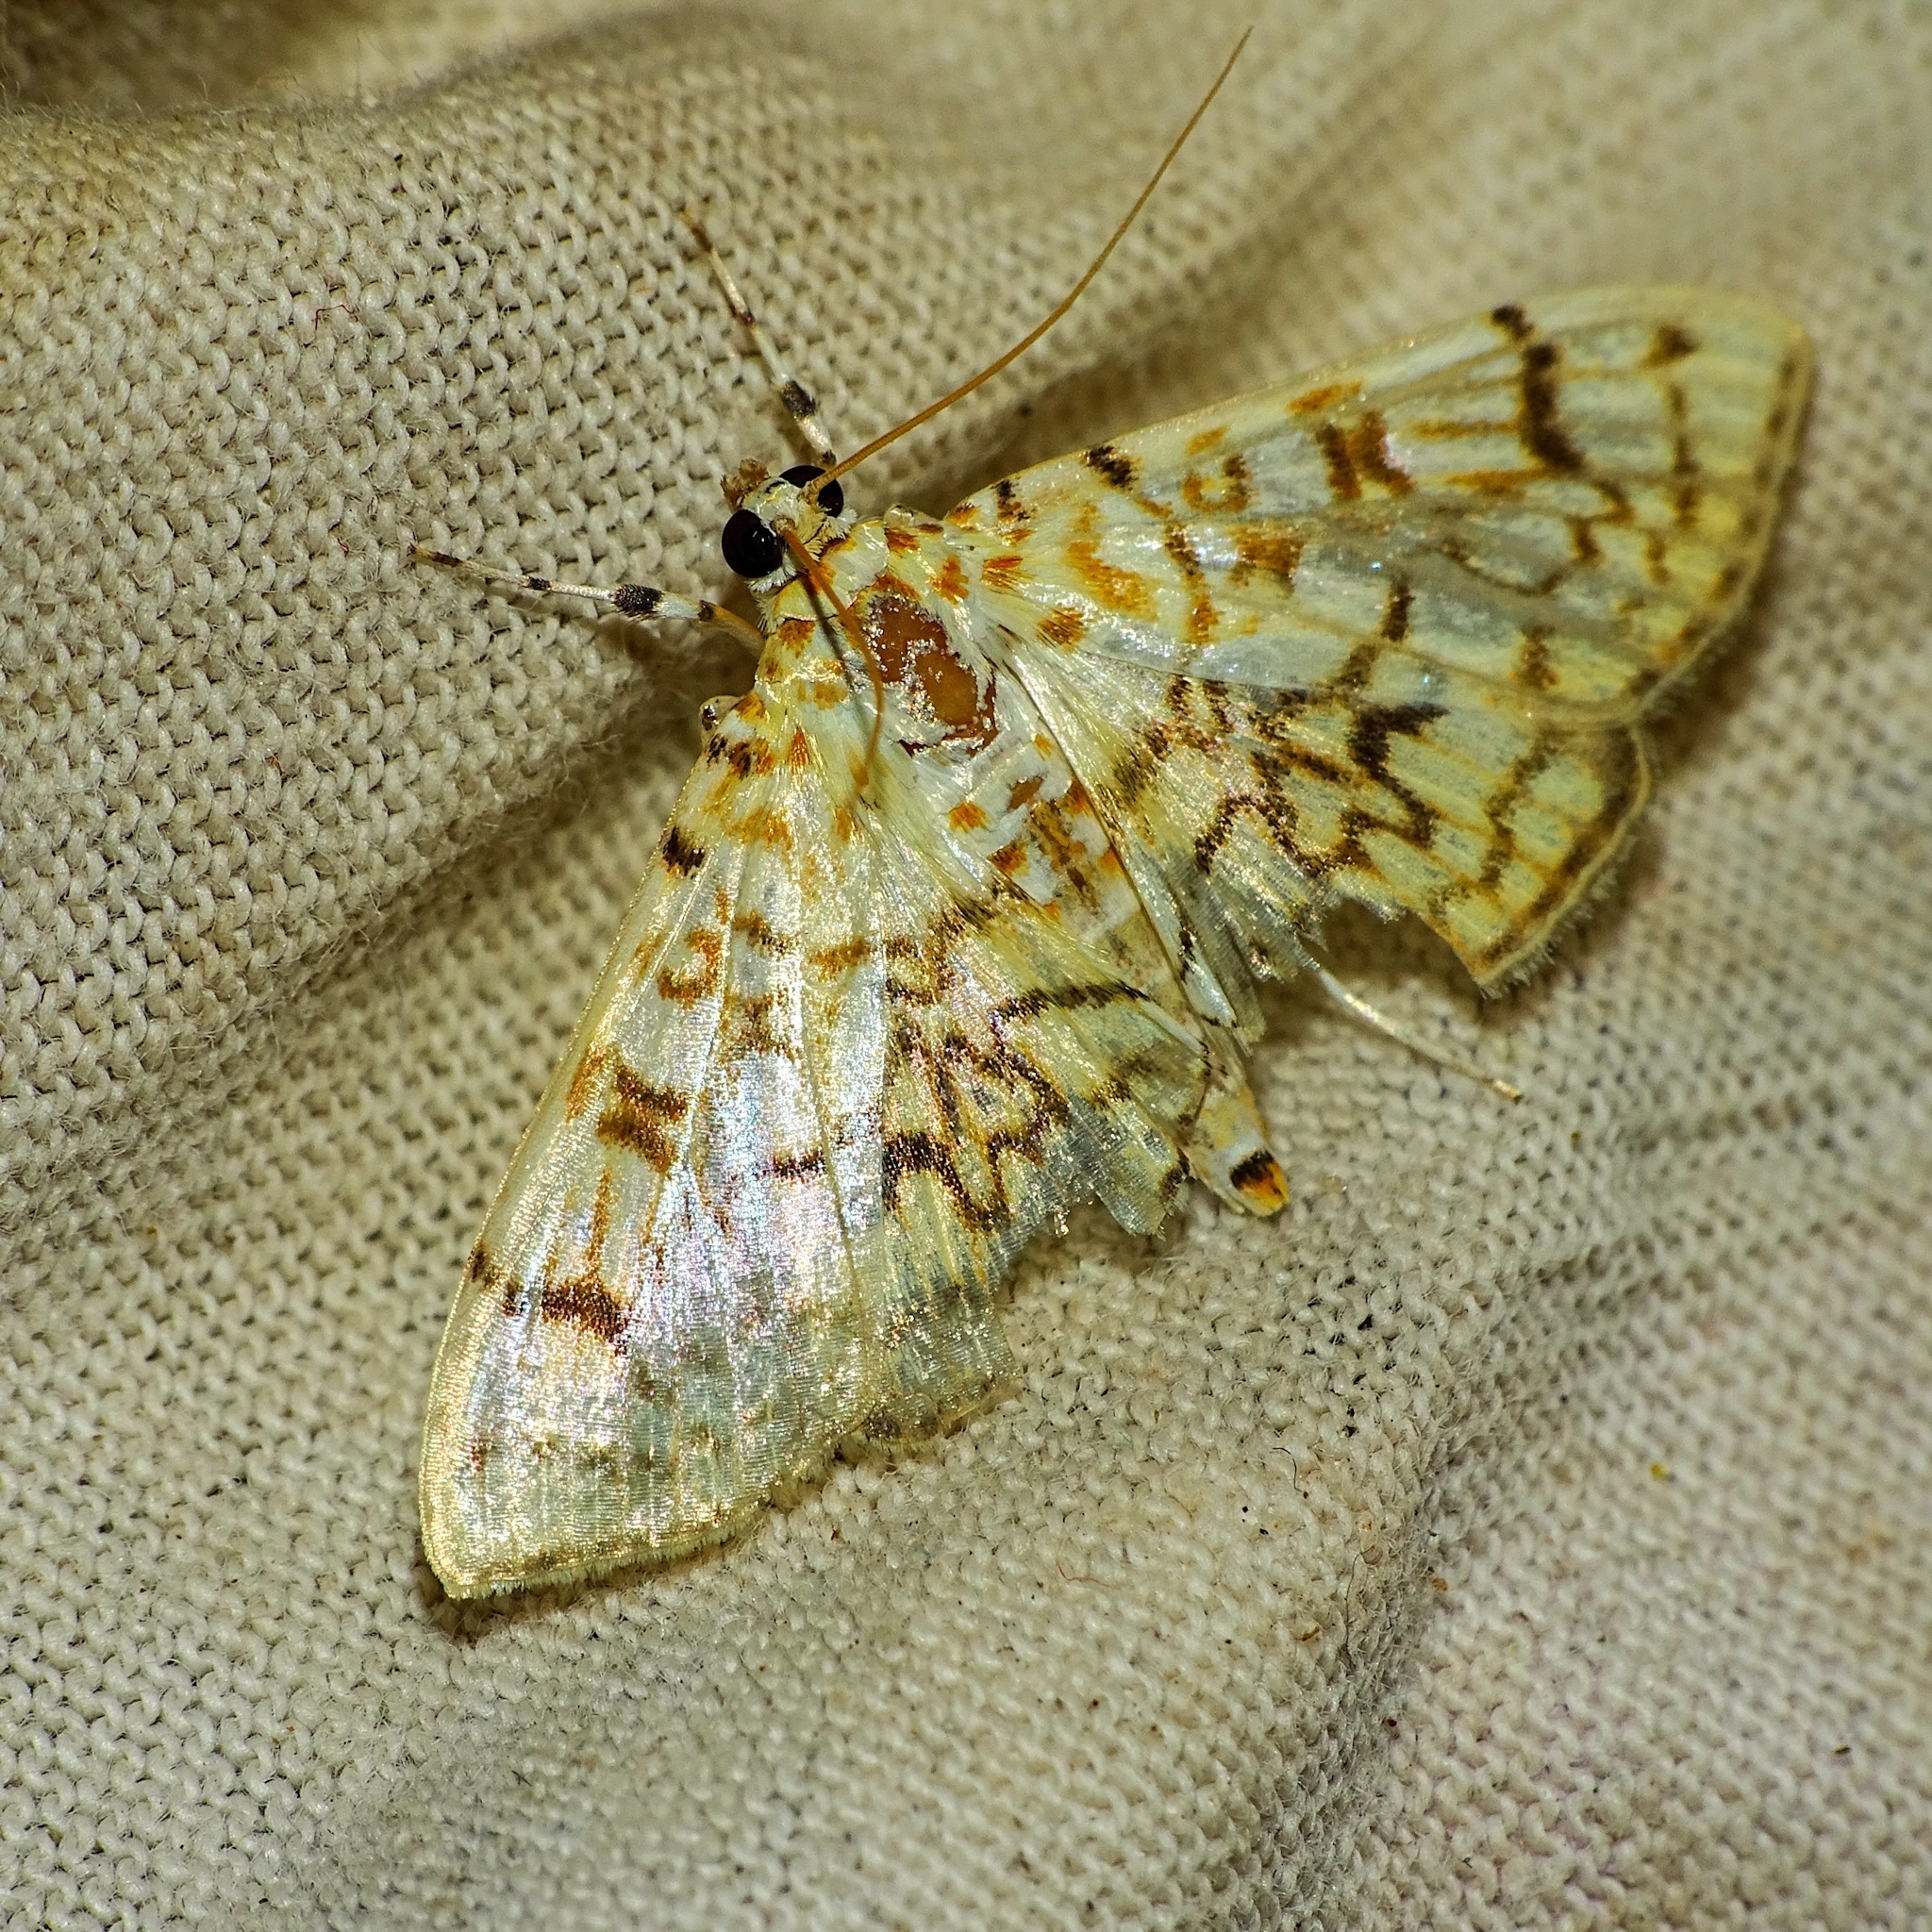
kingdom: Animalia
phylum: Arthropoda
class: Insecta
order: Lepidoptera
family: Crambidae
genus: Haritalodes
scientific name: Haritalodes derogata
